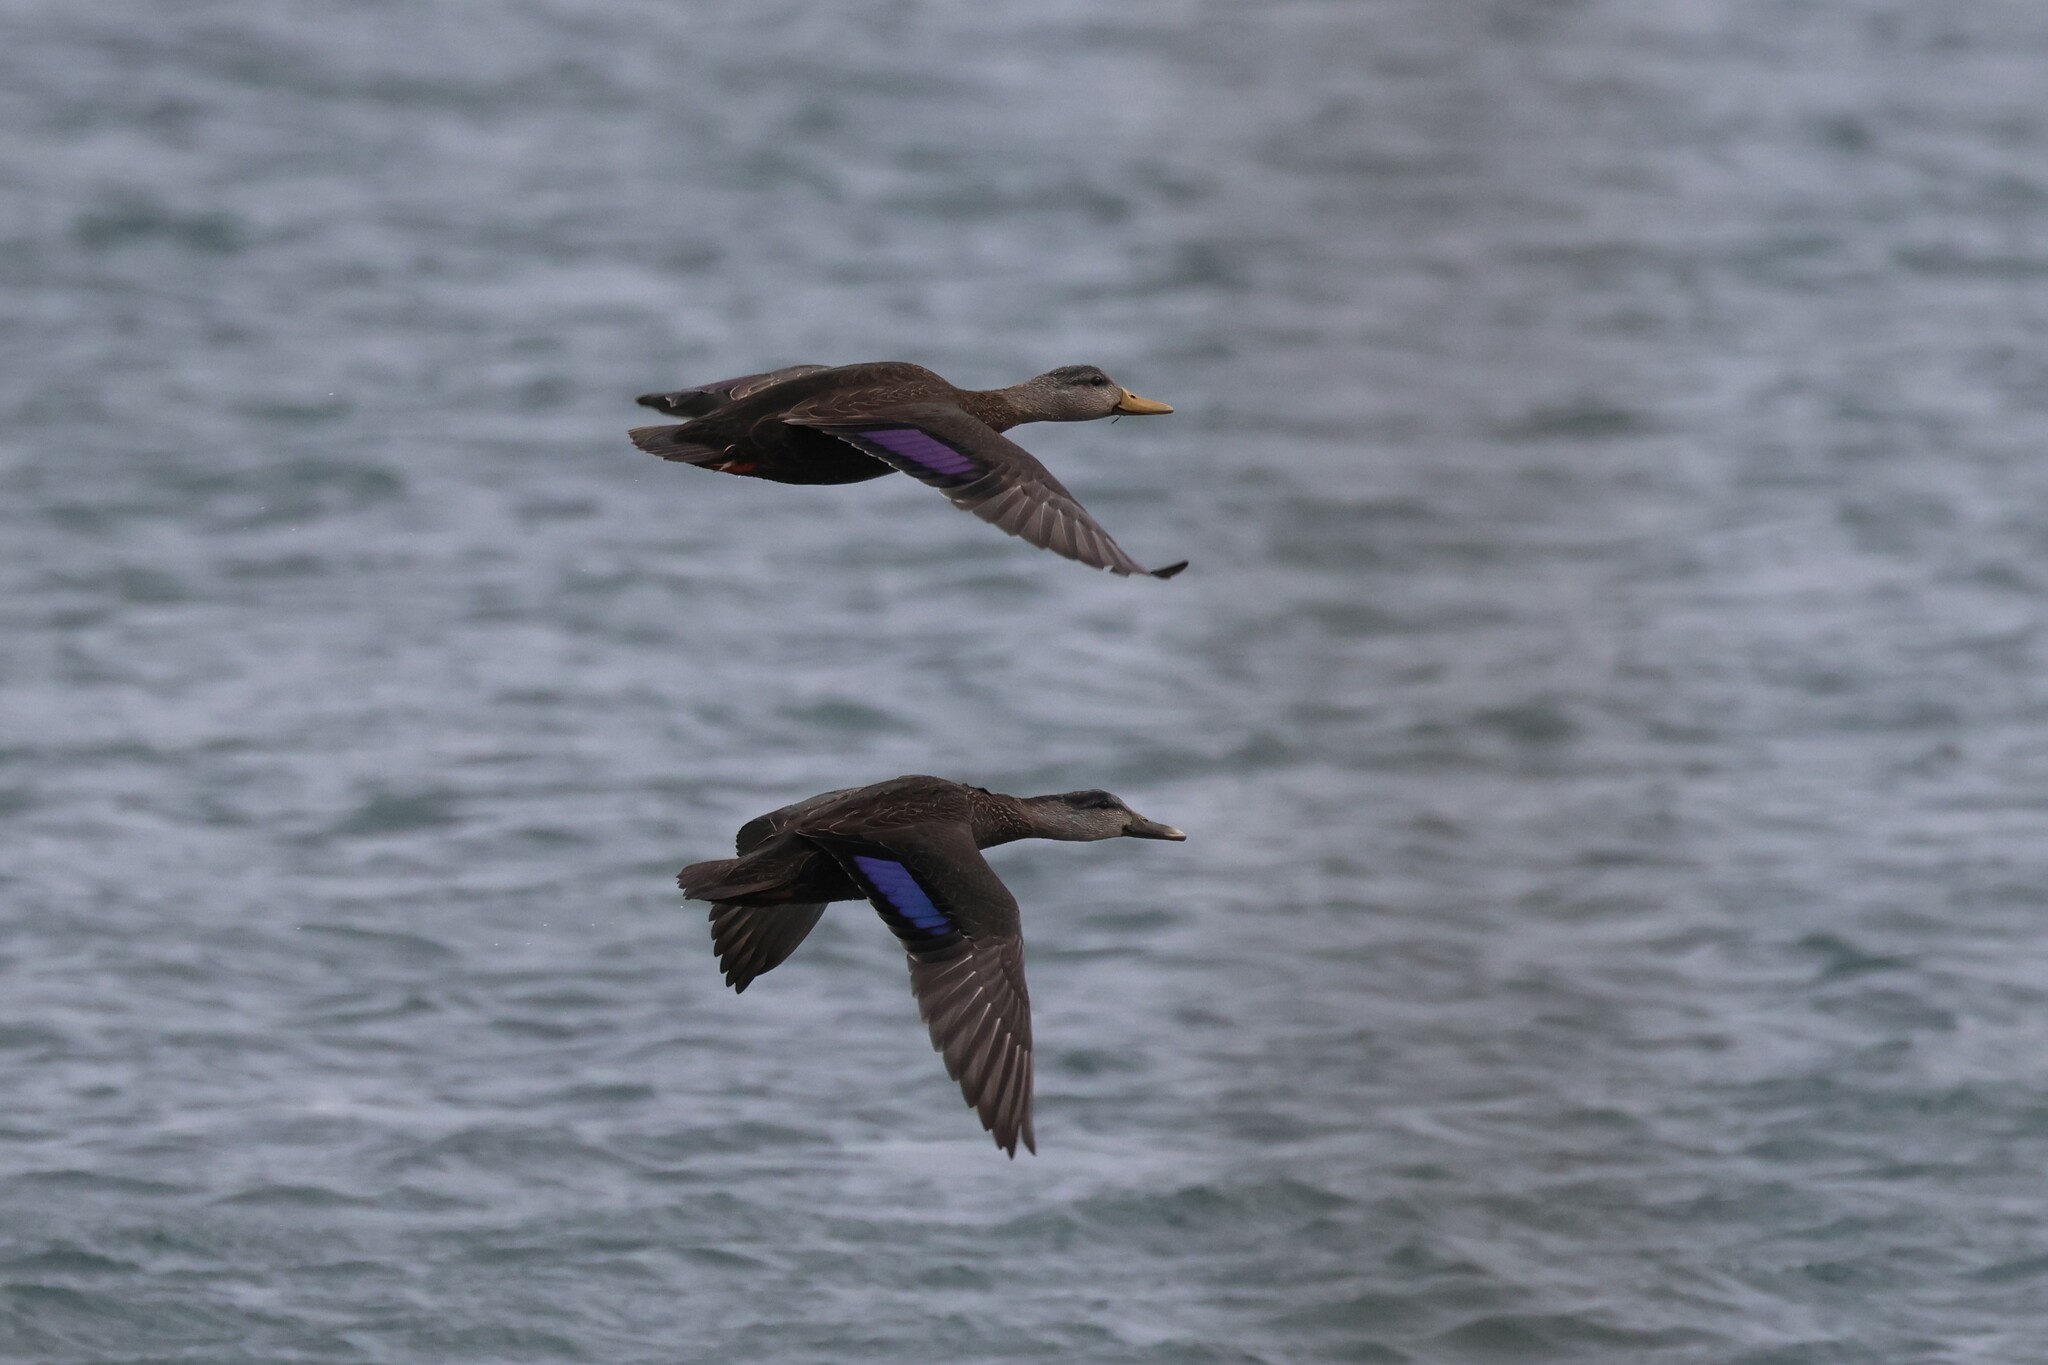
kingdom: Animalia
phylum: Chordata
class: Aves
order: Anseriformes
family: Anatidae
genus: Anas
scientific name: Anas rubripes
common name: American black duck
